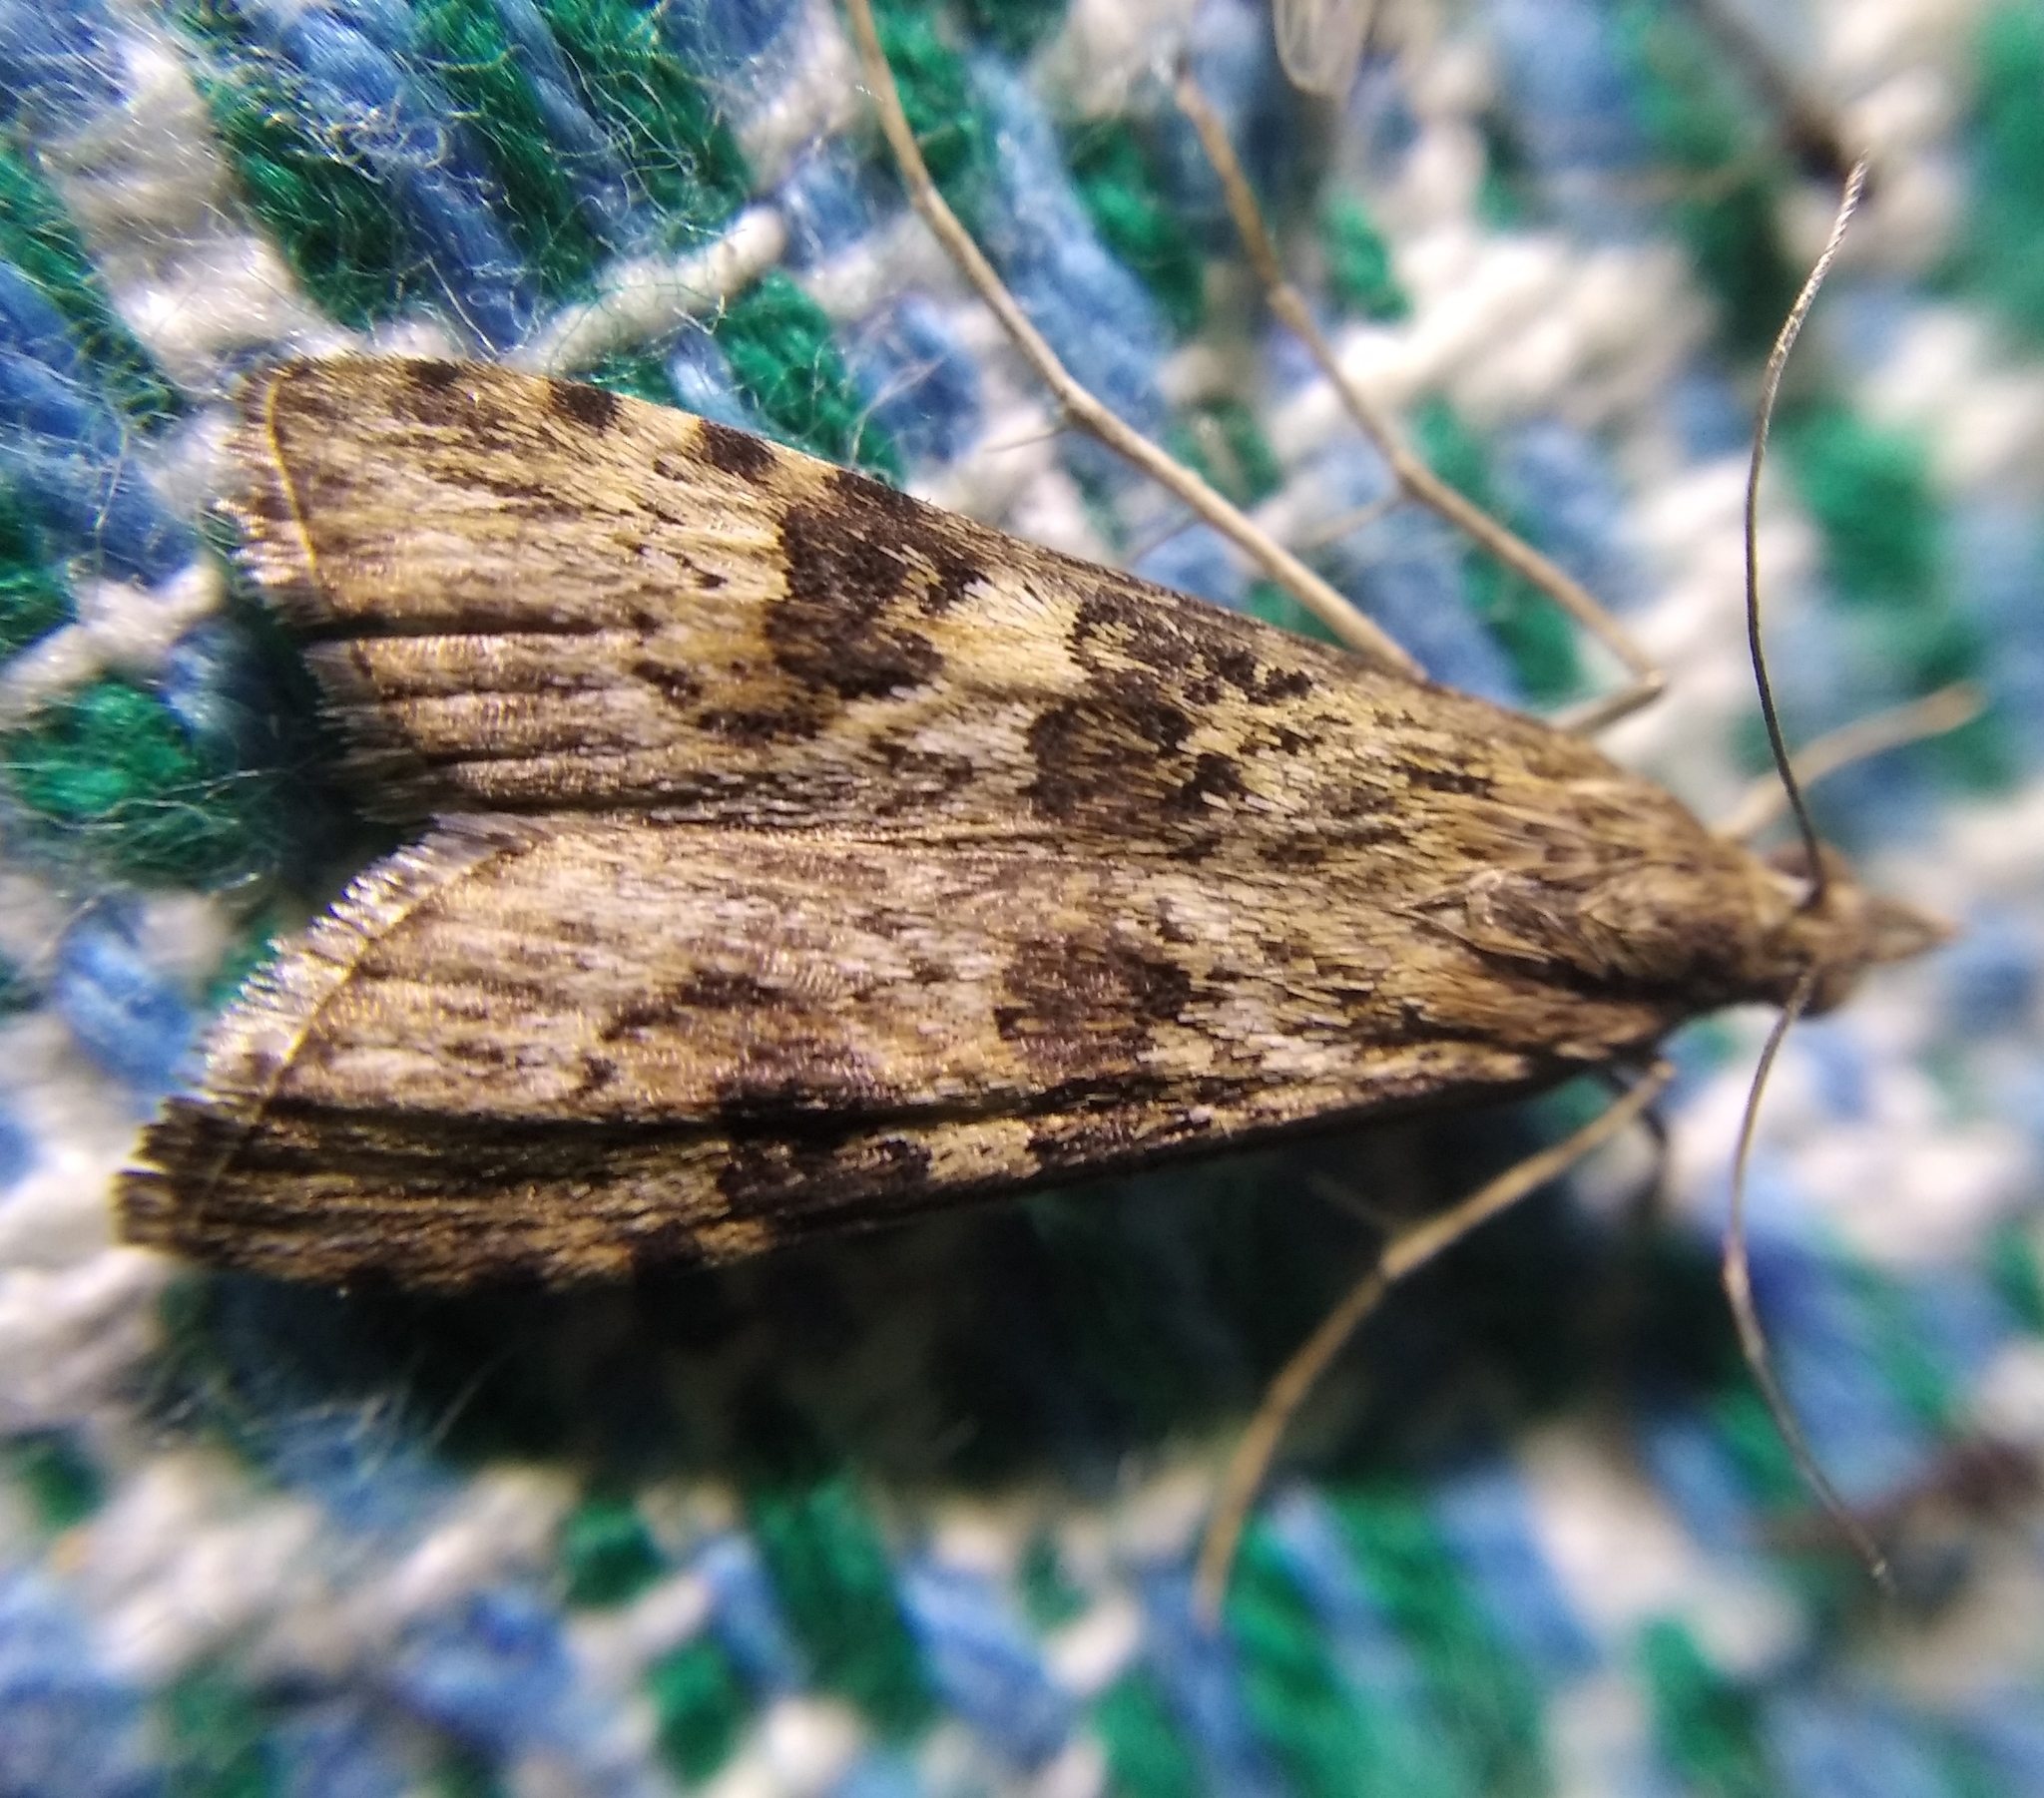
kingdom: Animalia
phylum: Arthropoda
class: Insecta
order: Lepidoptera
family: Crambidae
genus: Nomophila
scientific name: Nomophila noctuella
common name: Rush veneer
